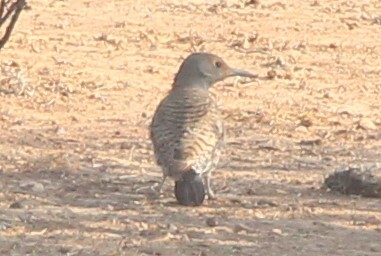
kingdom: Animalia
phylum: Chordata
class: Aves
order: Piciformes
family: Picidae
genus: Melanerpes
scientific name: Melanerpes aurifrons
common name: Golden-fronted woodpecker
